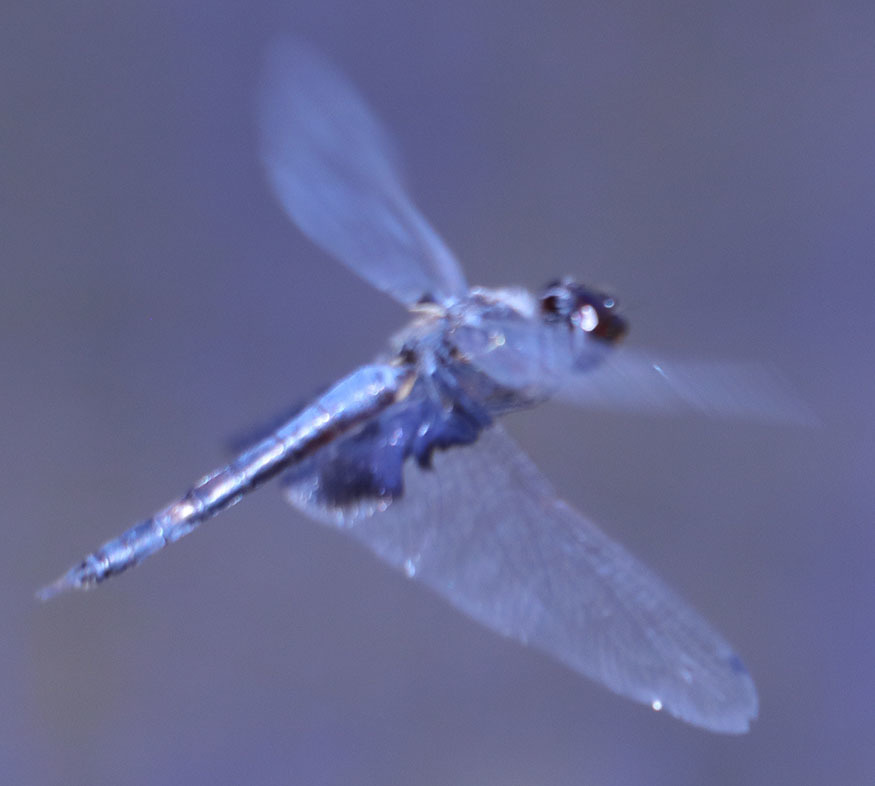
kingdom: Animalia
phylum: Arthropoda
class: Insecta
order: Odonata
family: Libellulidae
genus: Tramea
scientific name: Tramea lacerata
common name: Black saddlebags
